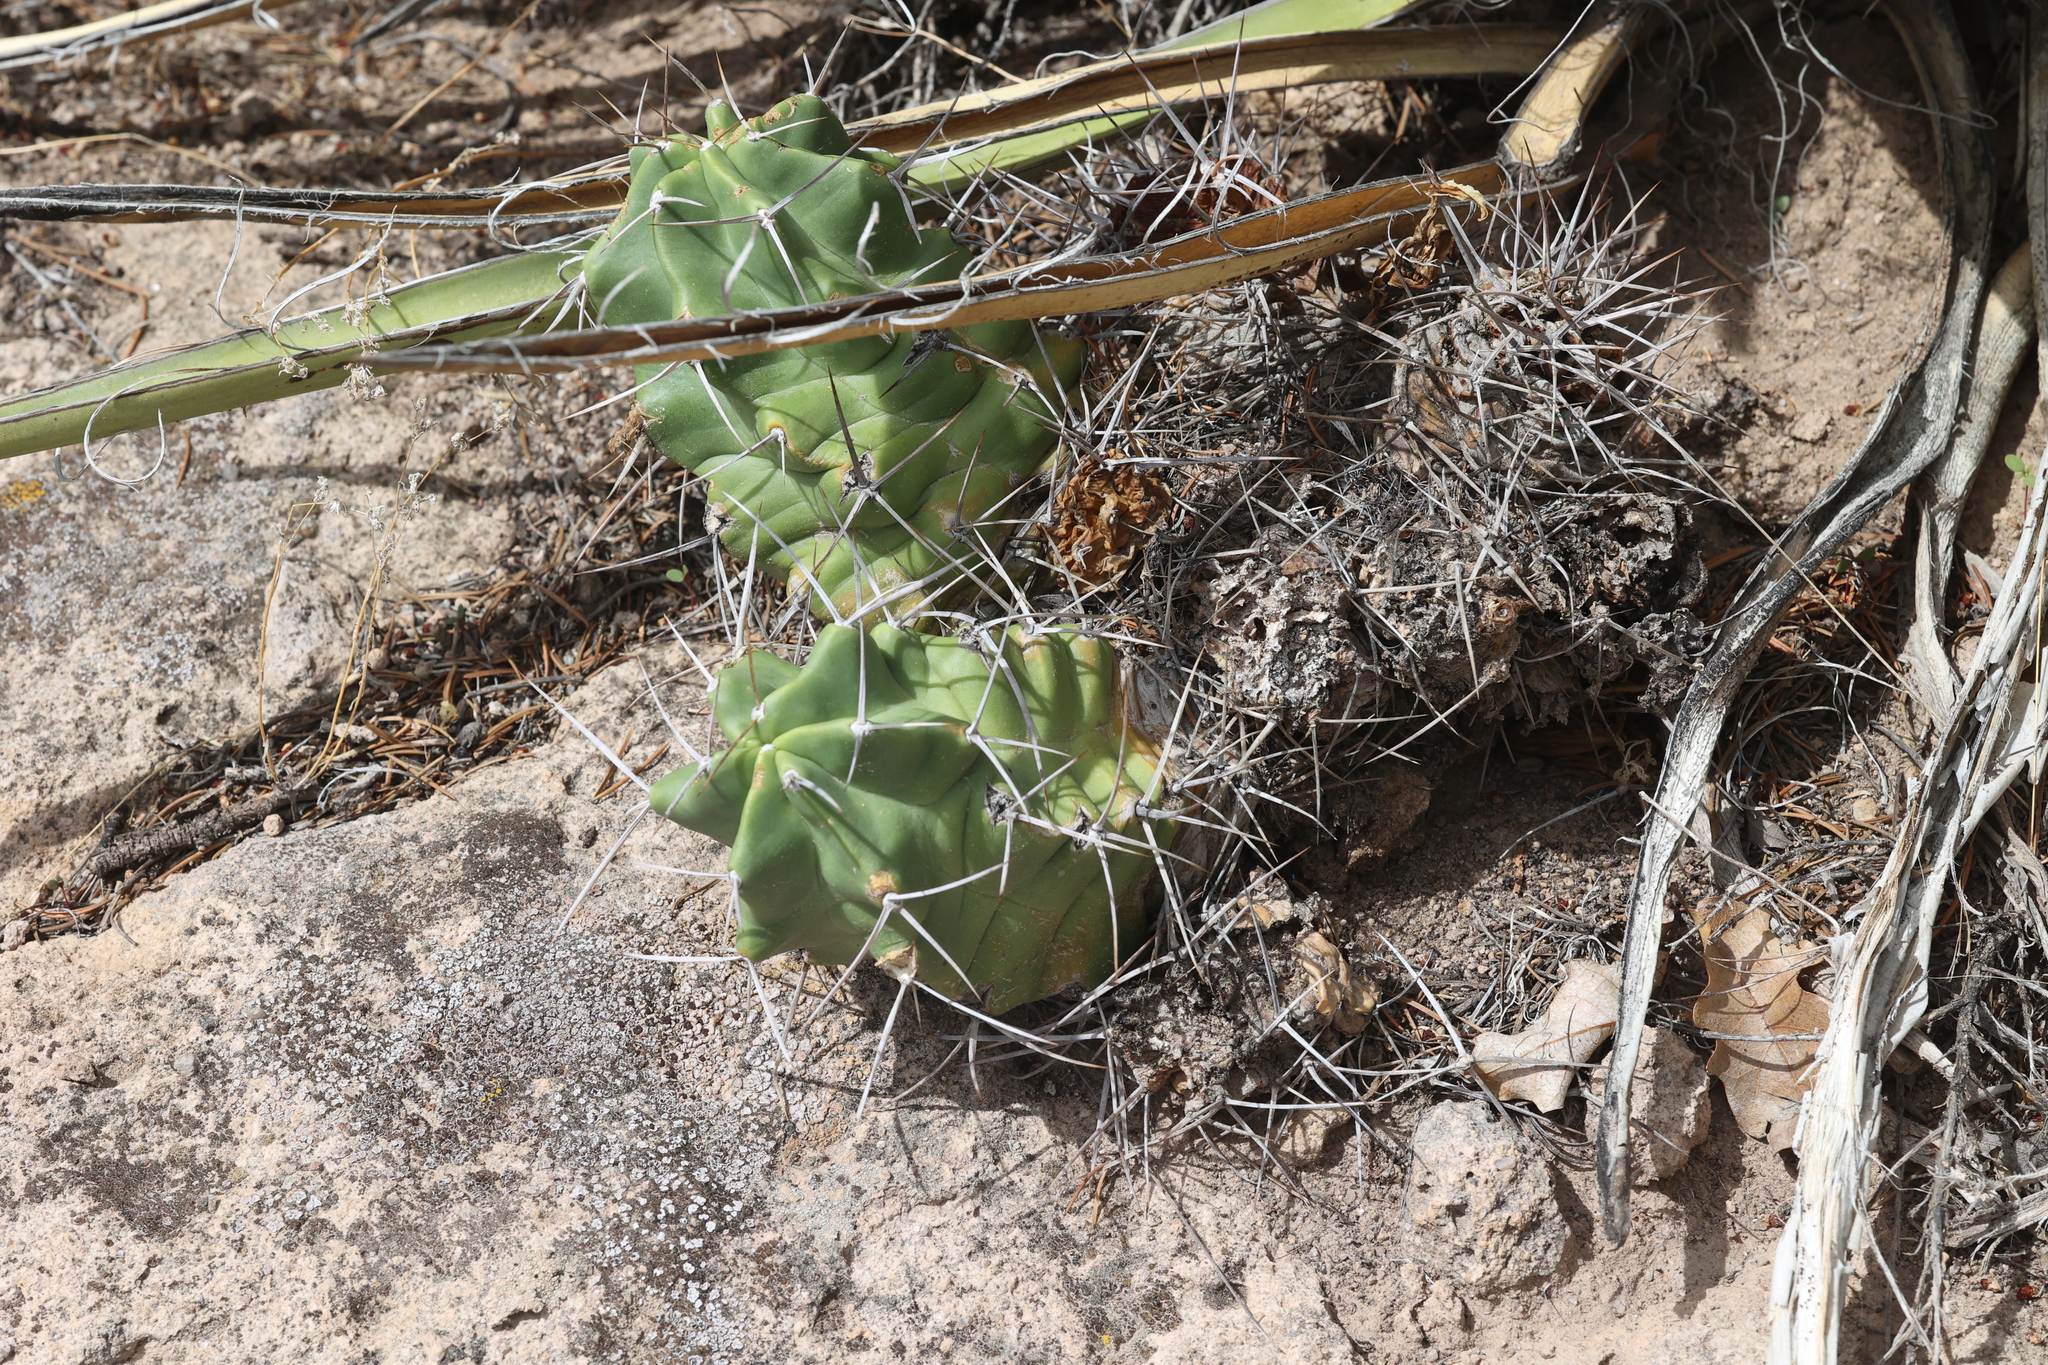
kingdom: Plantae
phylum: Tracheophyta
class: Magnoliopsida
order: Caryophyllales
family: Cactaceae
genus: Echinocereus
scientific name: Echinocereus triglochidiatus
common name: Claretcup hedgehog
